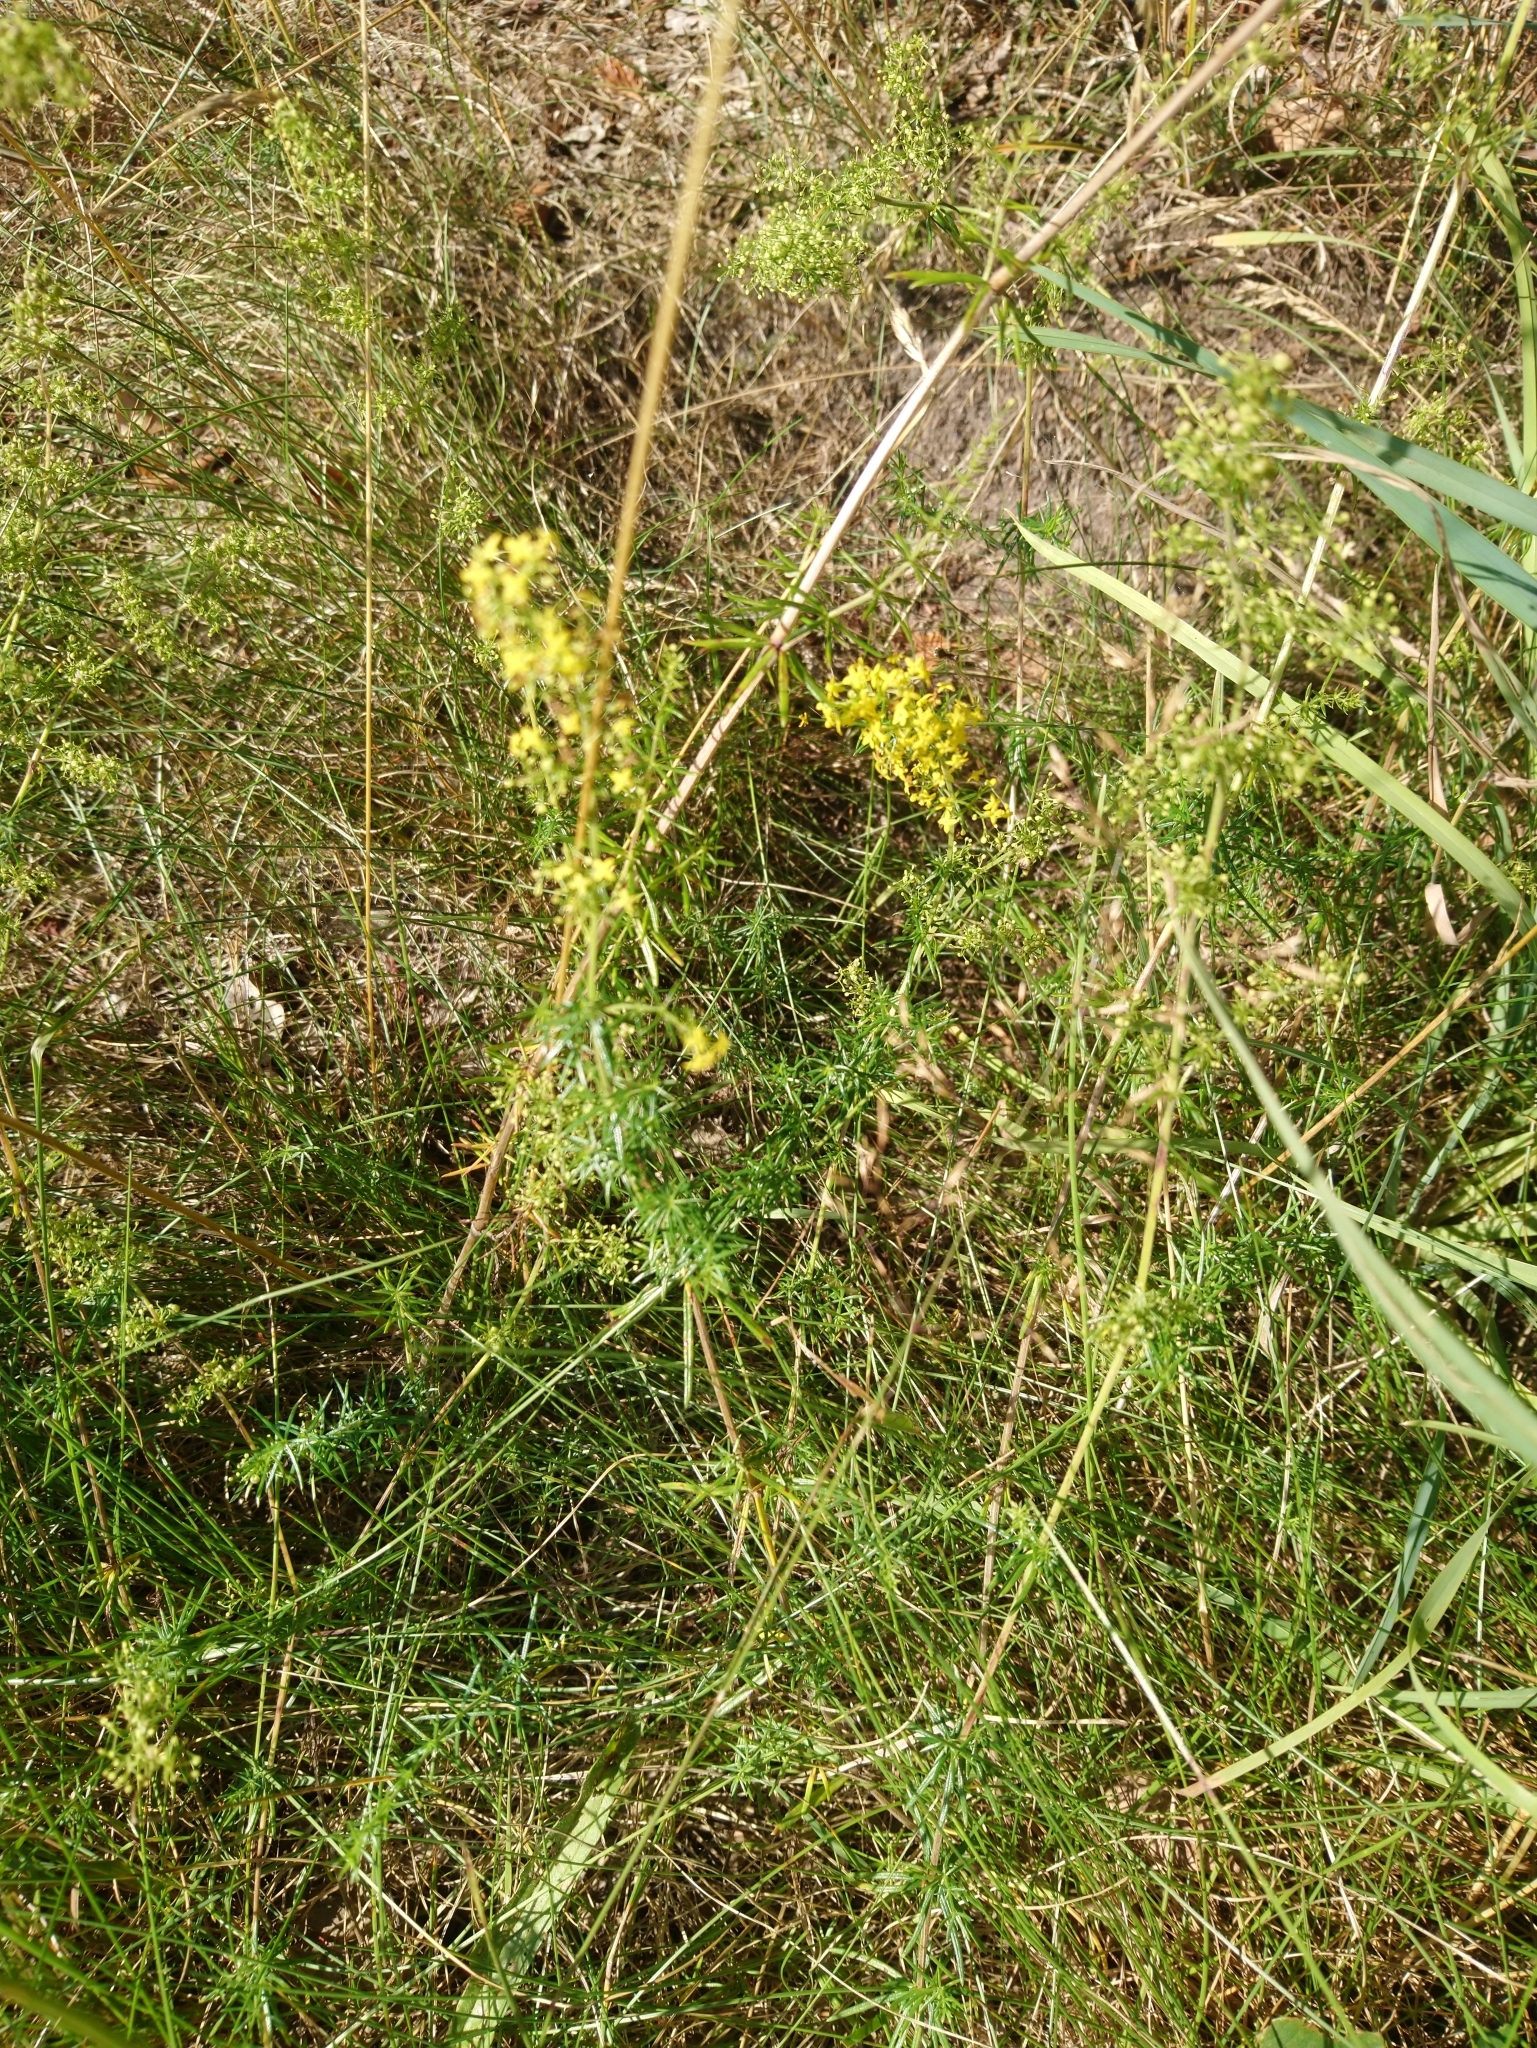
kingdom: Plantae
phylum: Tracheophyta
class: Magnoliopsida
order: Gentianales
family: Rubiaceae
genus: Galium
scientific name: Galium verum
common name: Lady's bedstraw
